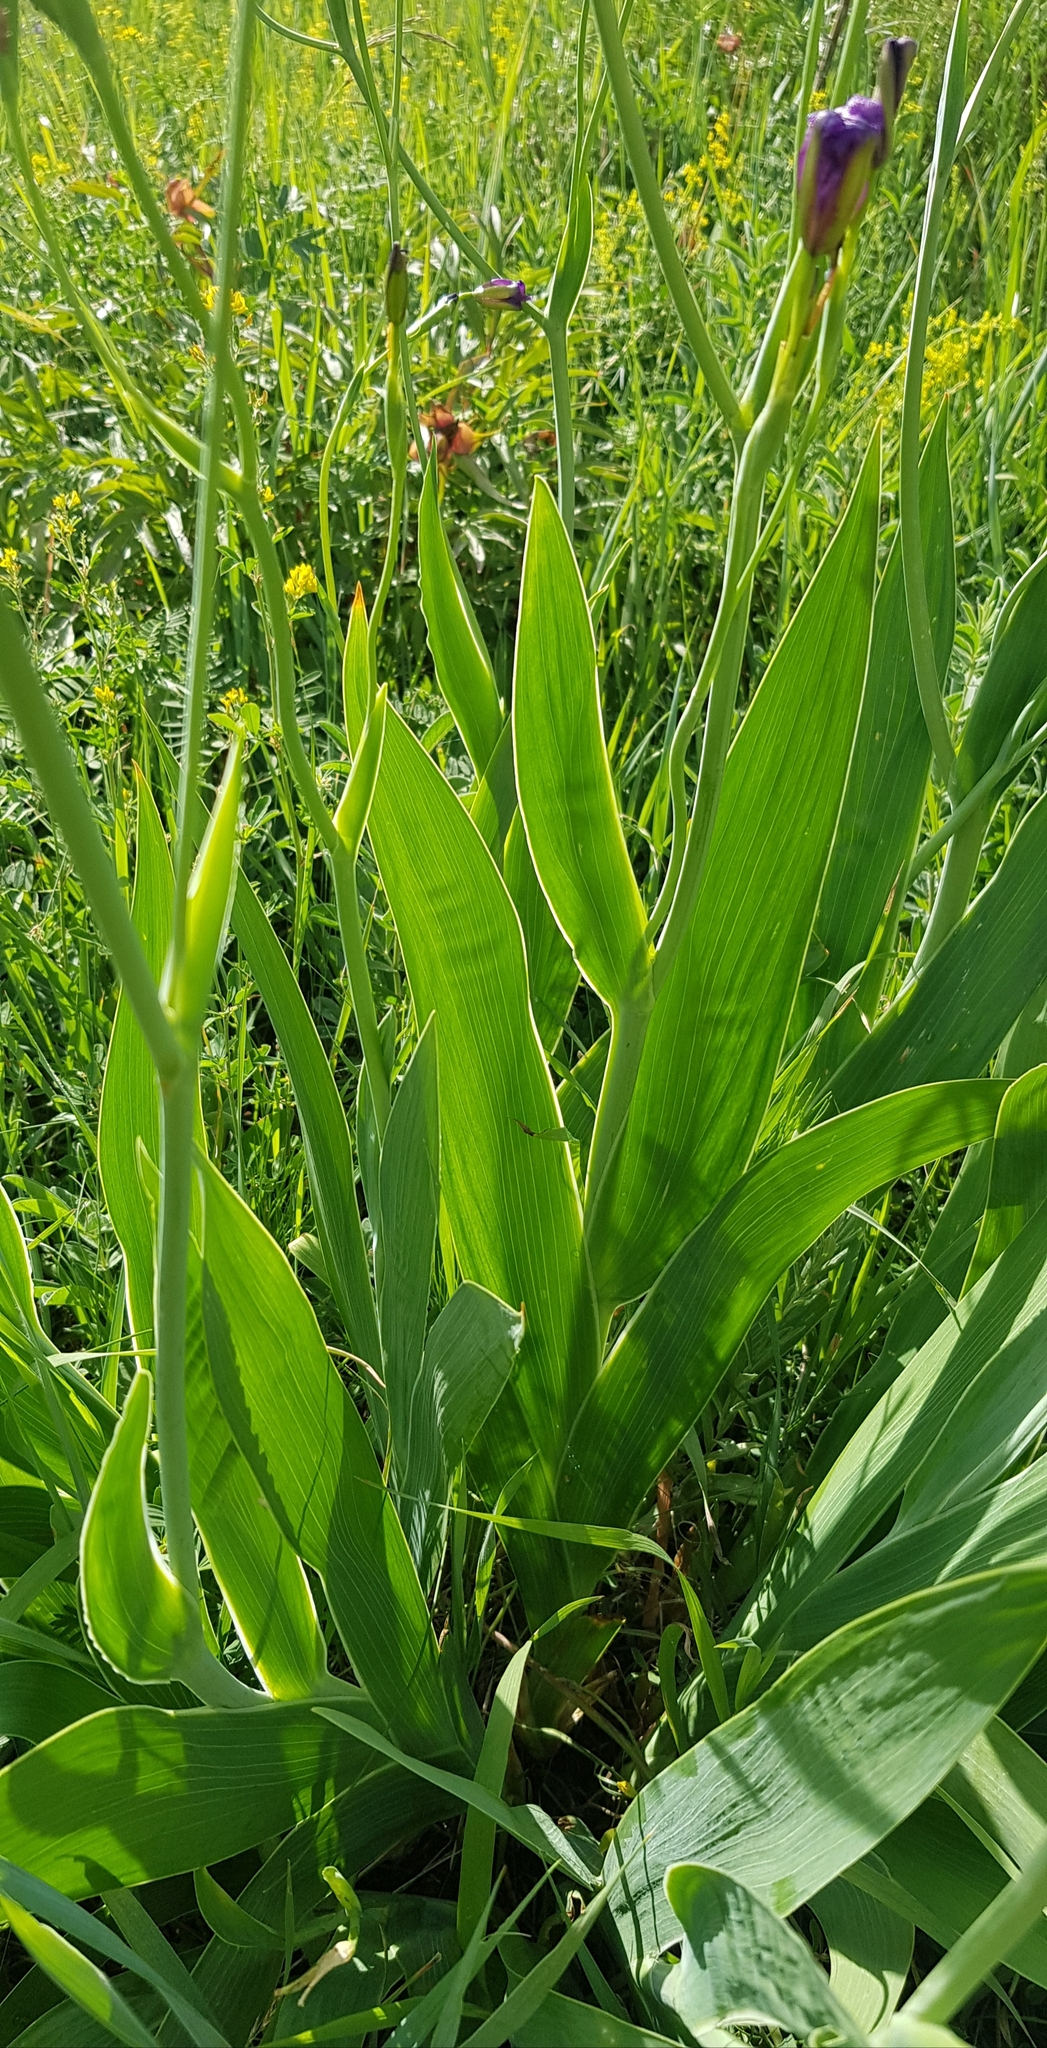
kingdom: Plantae
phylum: Tracheophyta
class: Liliopsida
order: Asparagales
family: Iridaceae
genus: Iris
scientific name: Iris dichotoma
